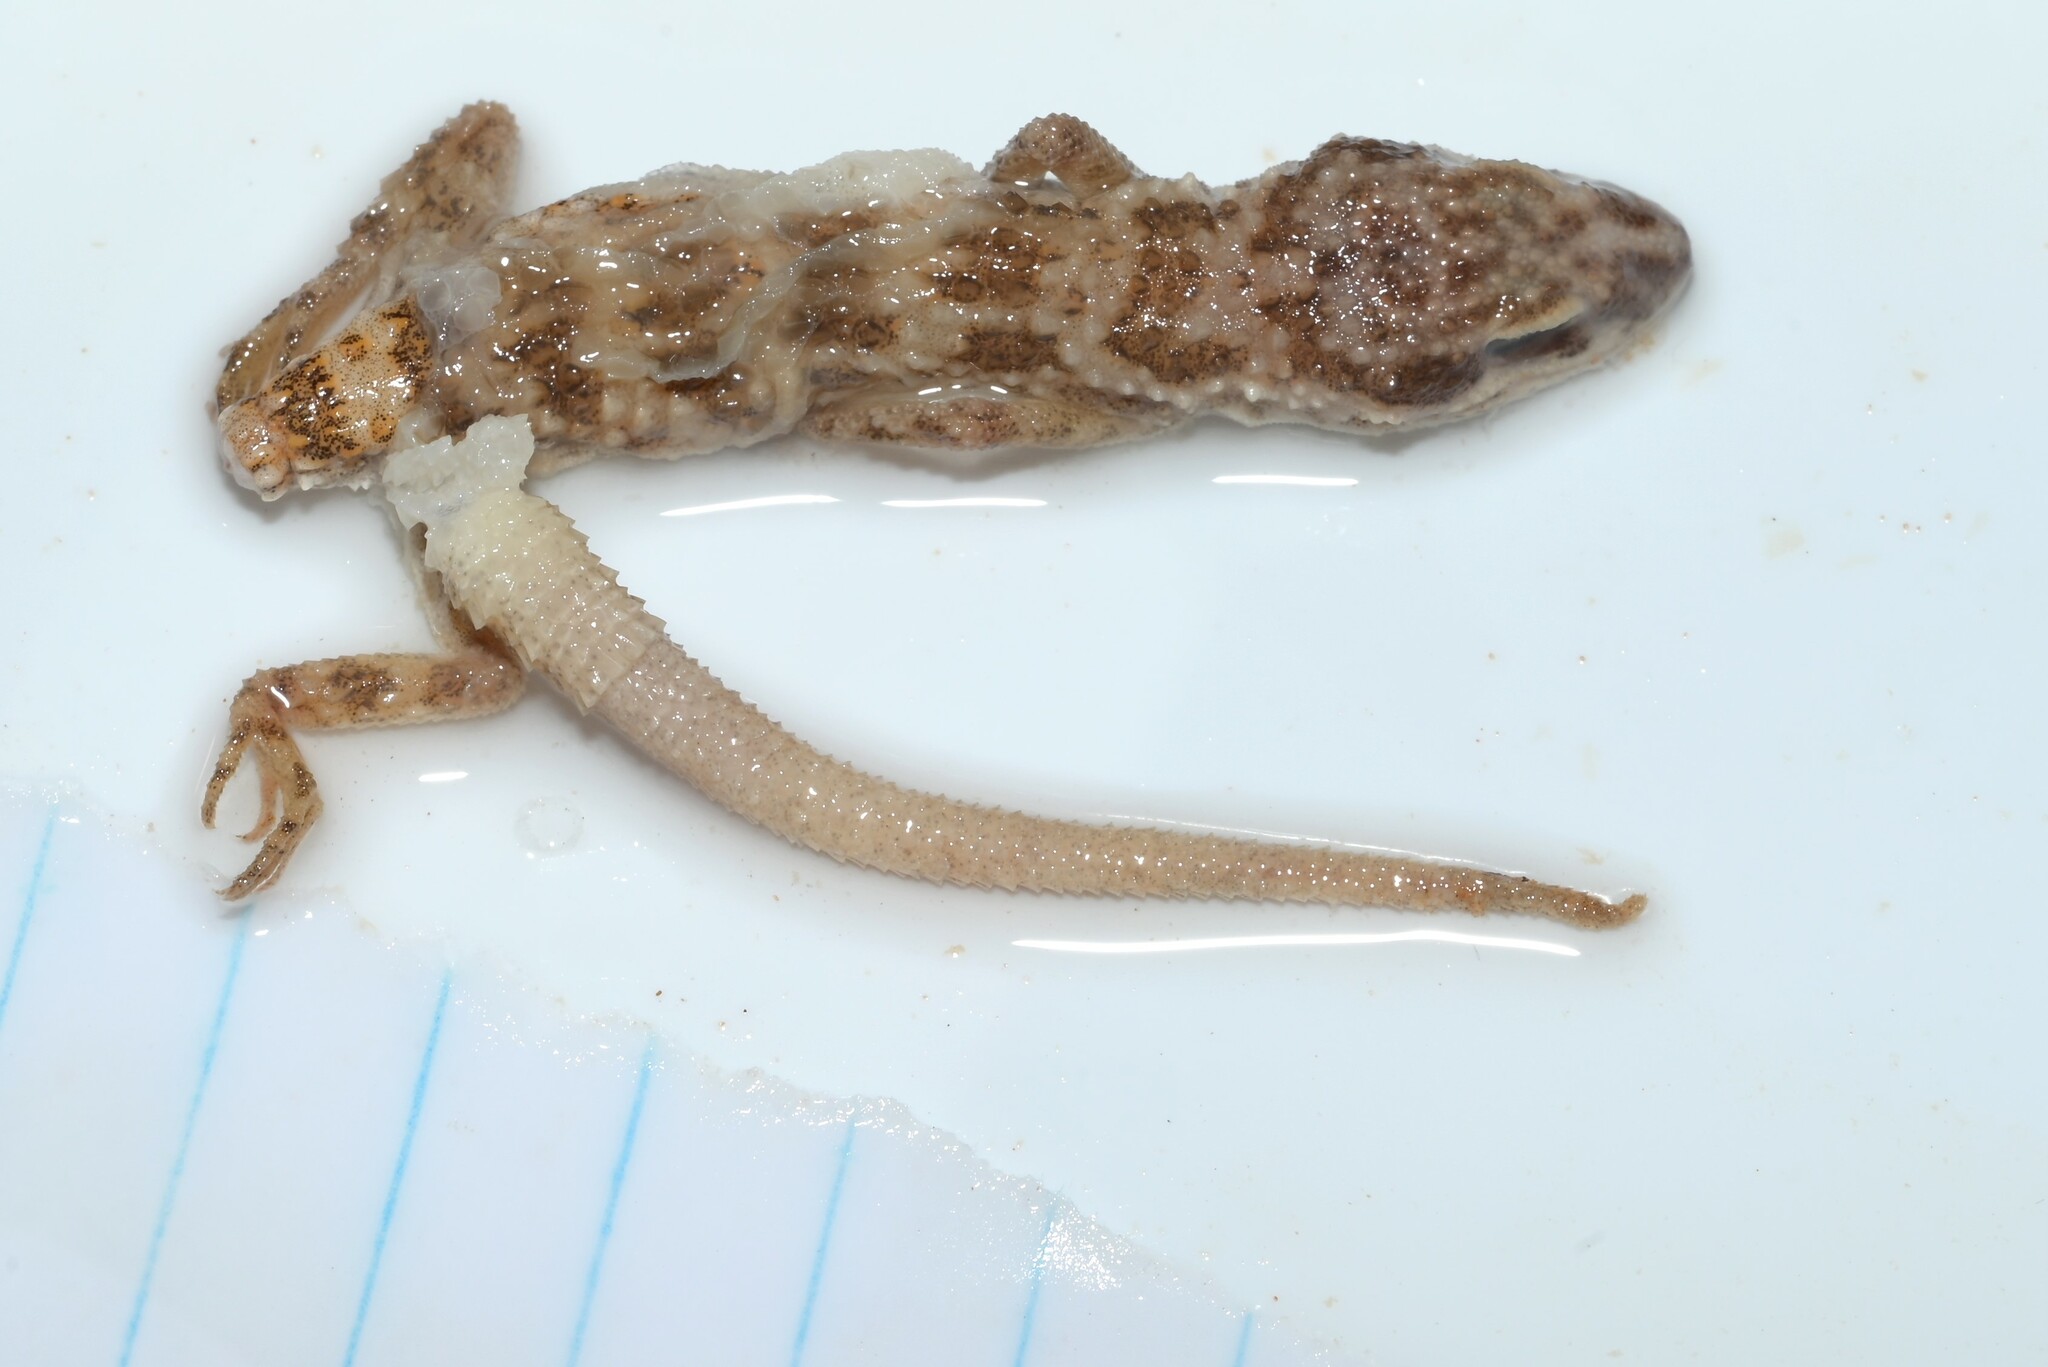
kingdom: Animalia
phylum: Chordata
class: Squamata
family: Gekkonidae
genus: Bunopus
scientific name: Bunopus tuberculatus
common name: Southern tuberculated gecko
